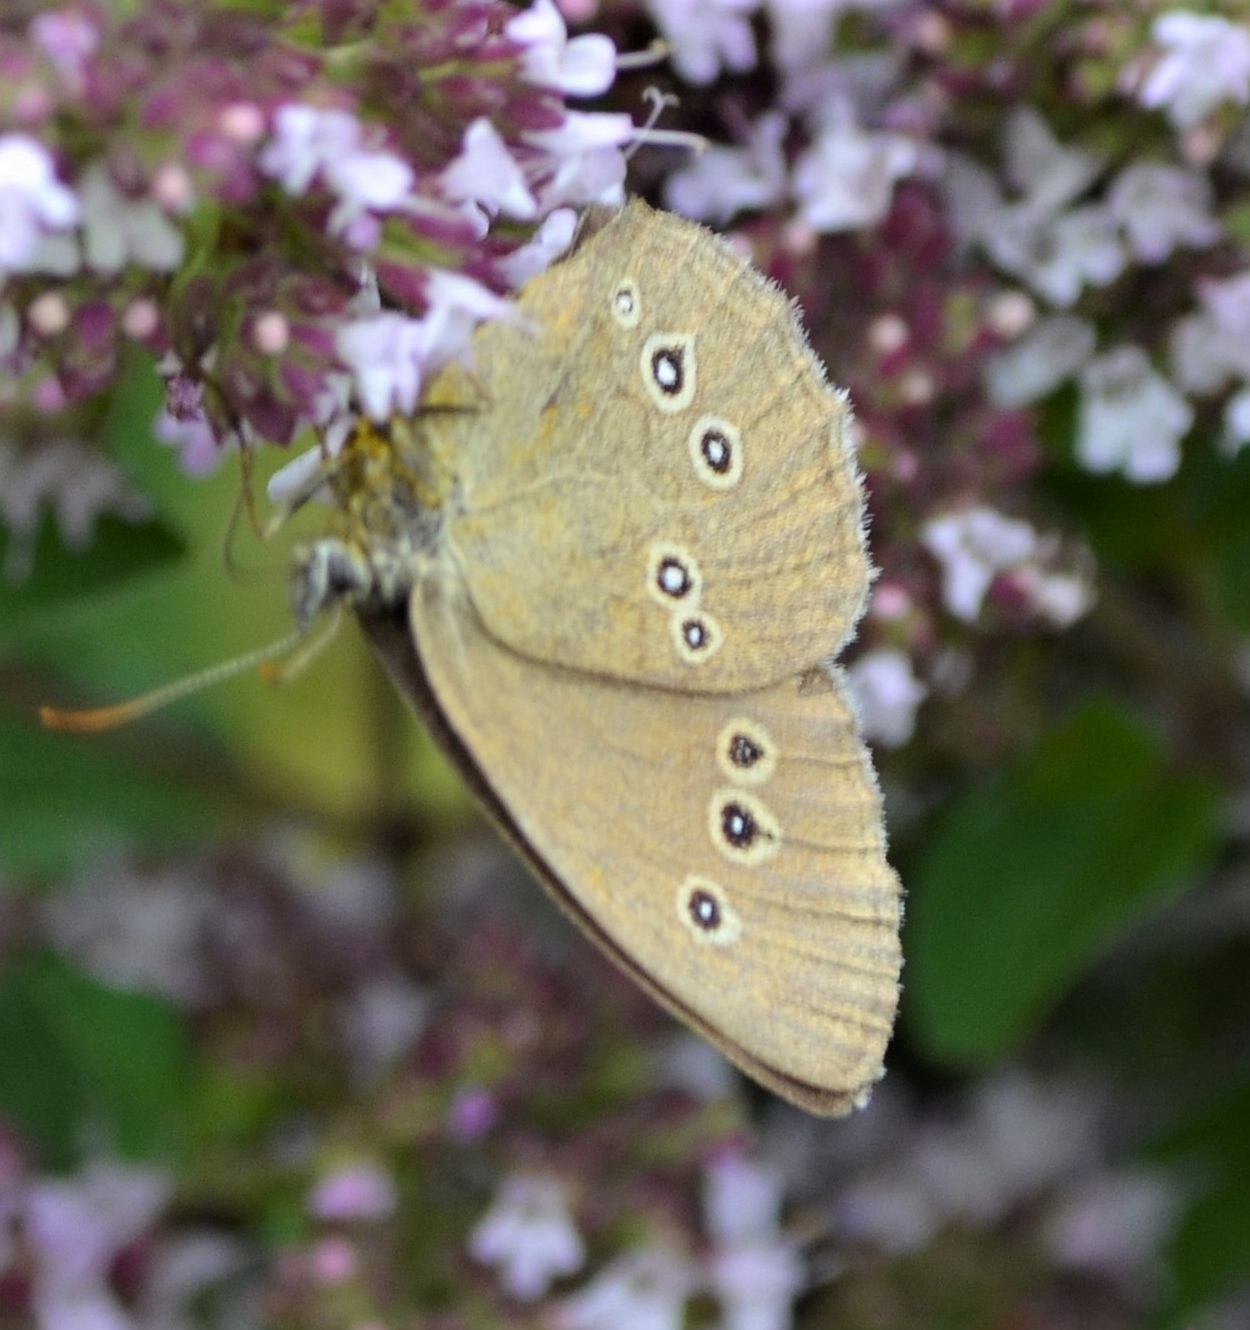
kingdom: Animalia
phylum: Arthropoda
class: Insecta
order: Lepidoptera
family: Nymphalidae
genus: Aphantopus
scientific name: Aphantopus hyperantus
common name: Ringlet
